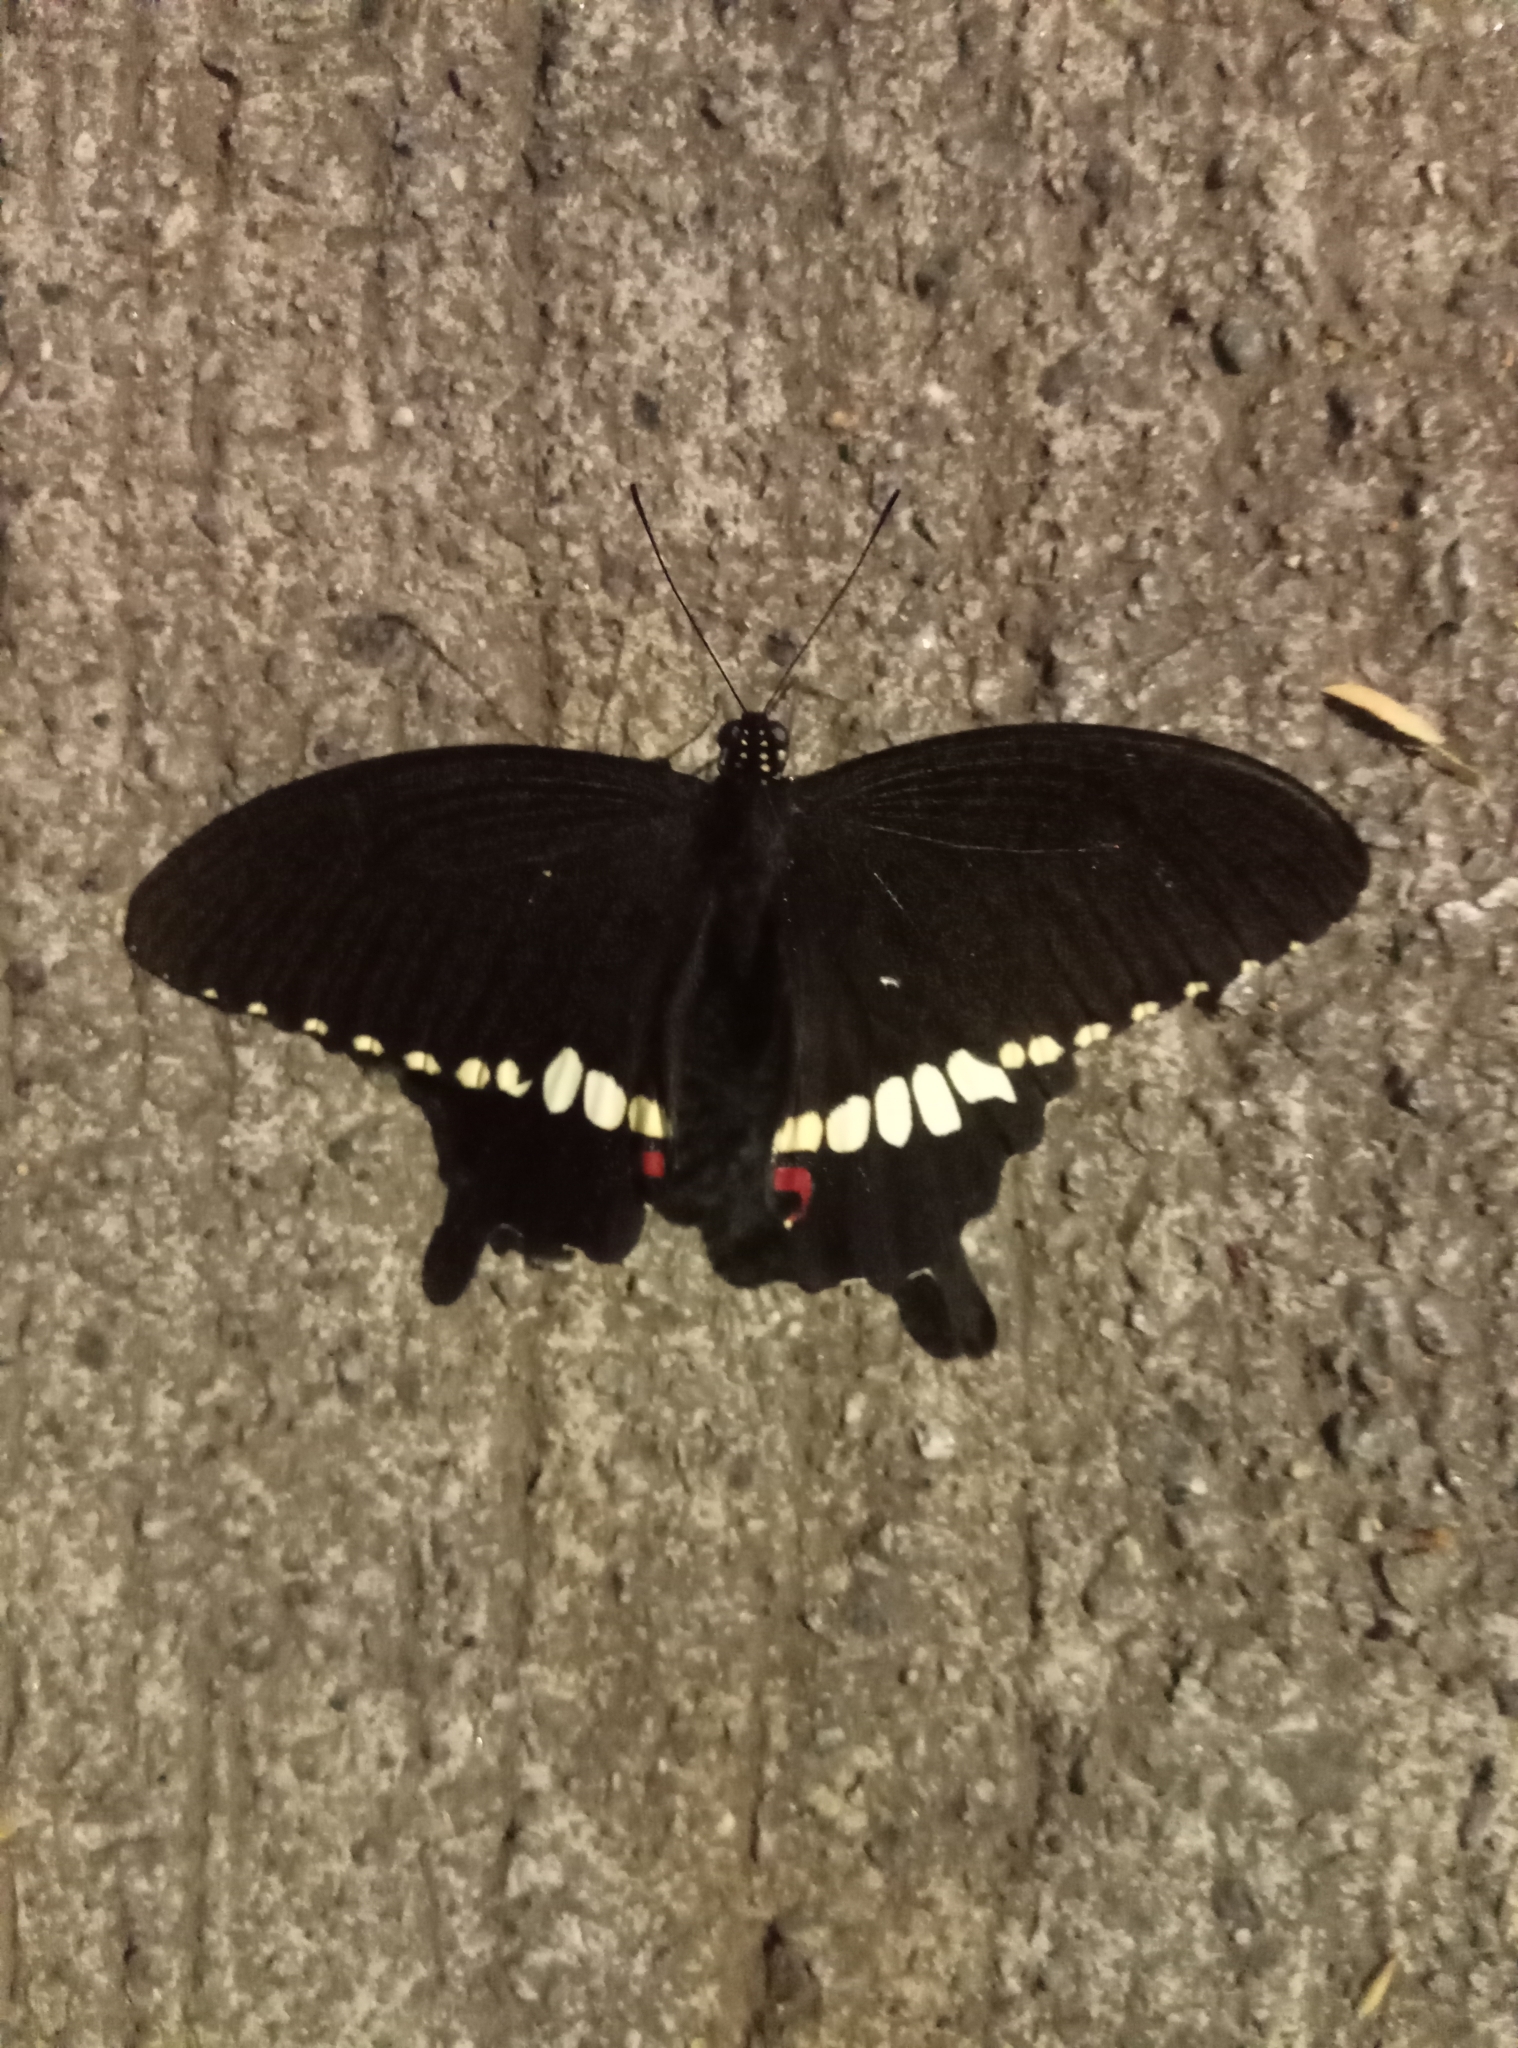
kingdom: Animalia
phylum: Arthropoda
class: Insecta
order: Lepidoptera
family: Papilionidae
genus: Papilio
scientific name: Papilio polytes
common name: Common mormon
